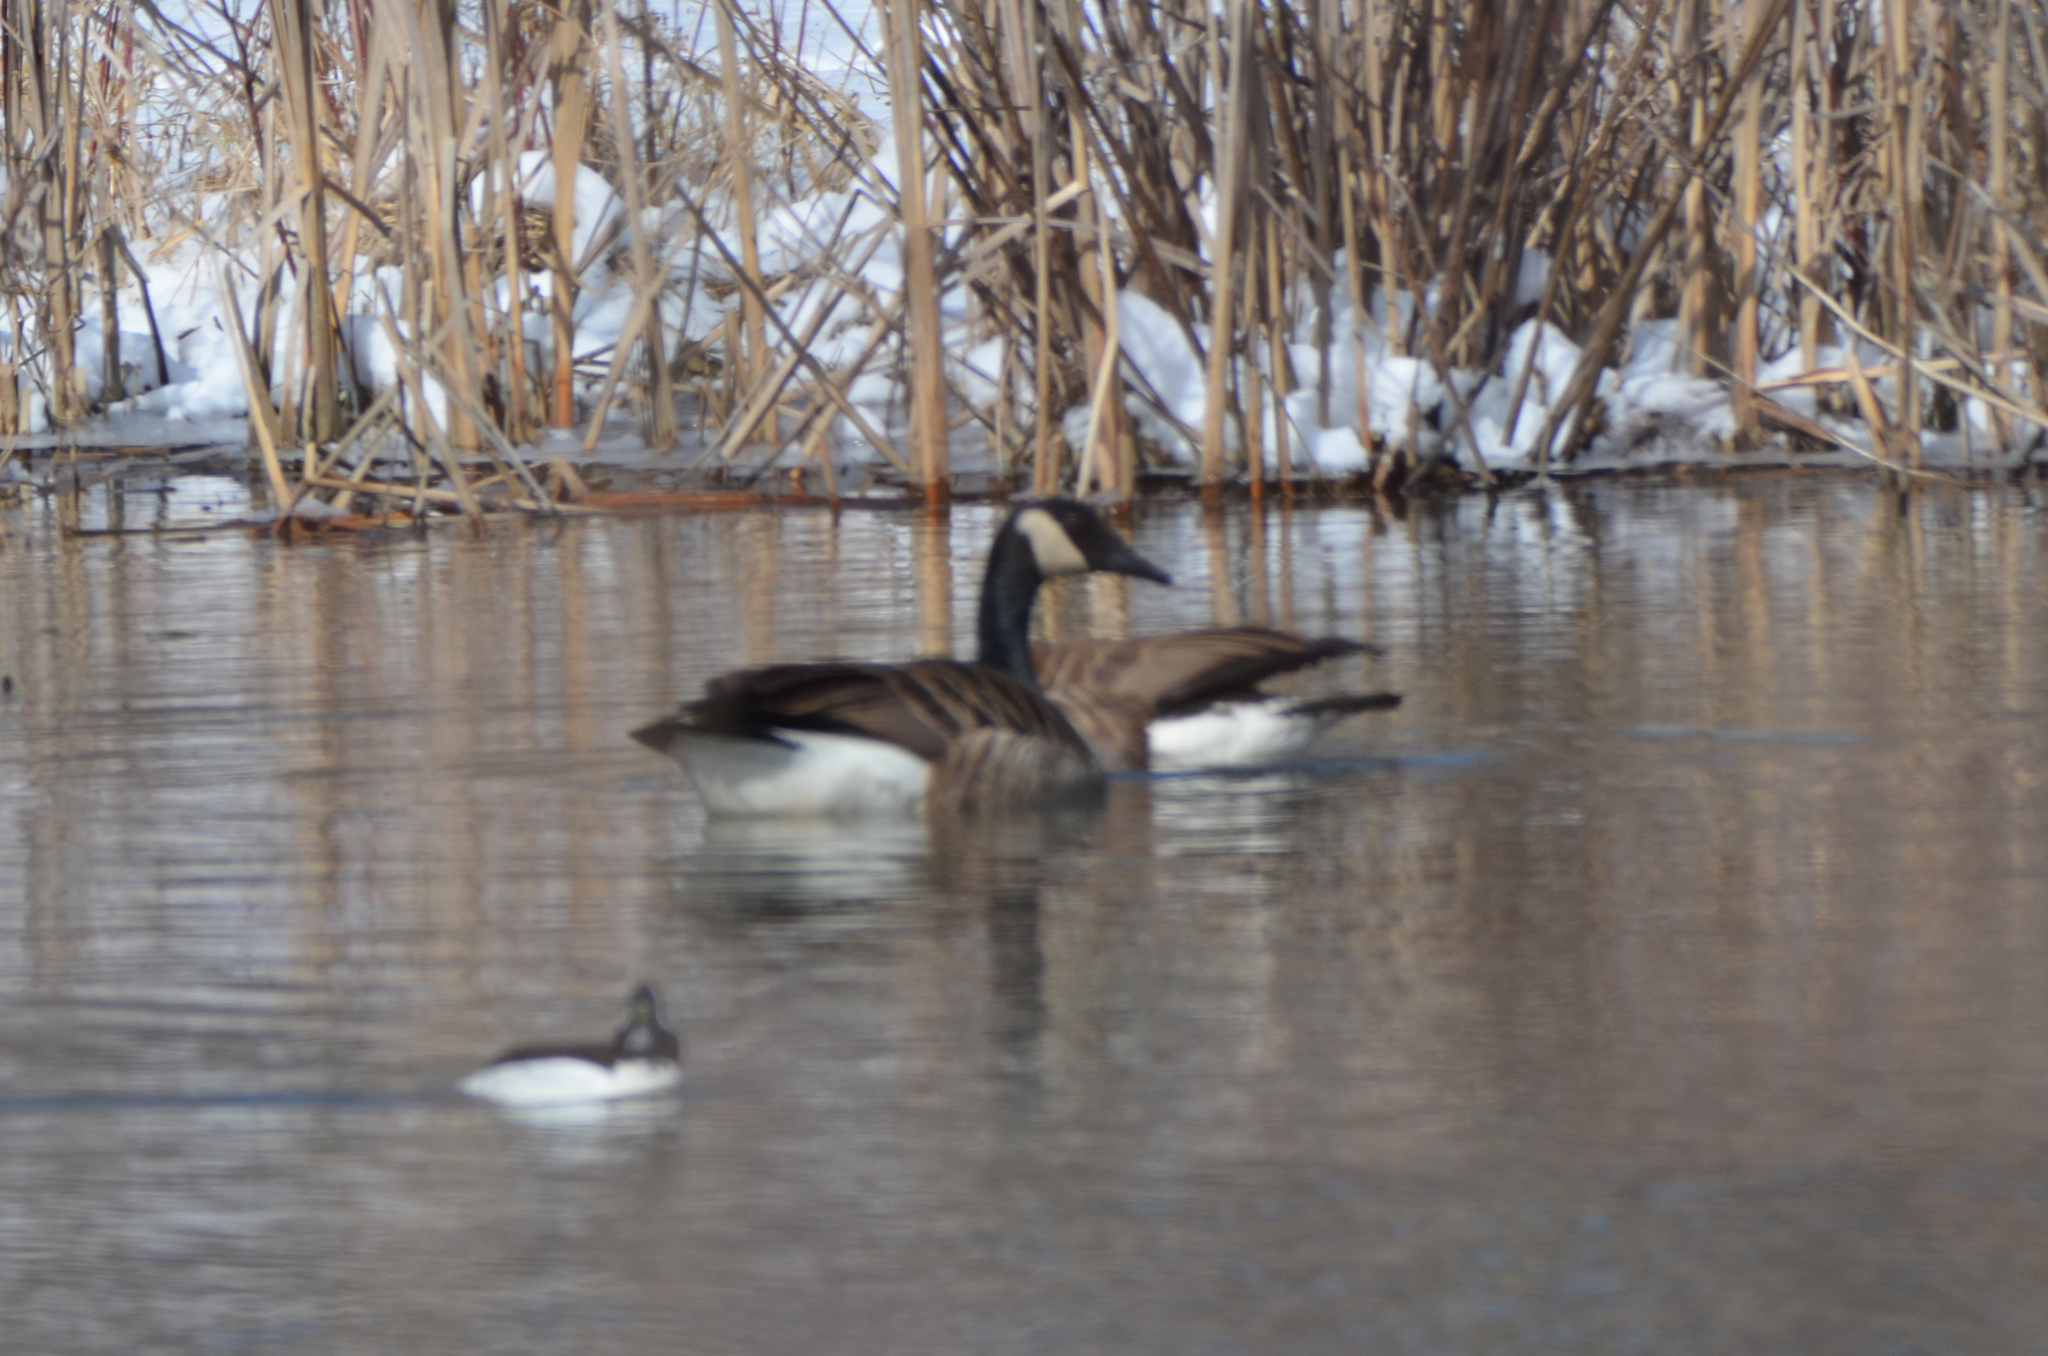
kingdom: Animalia
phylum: Chordata
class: Aves
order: Anseriformes
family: Anatidae
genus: Branta
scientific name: Branta canadensis
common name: Canada goose
